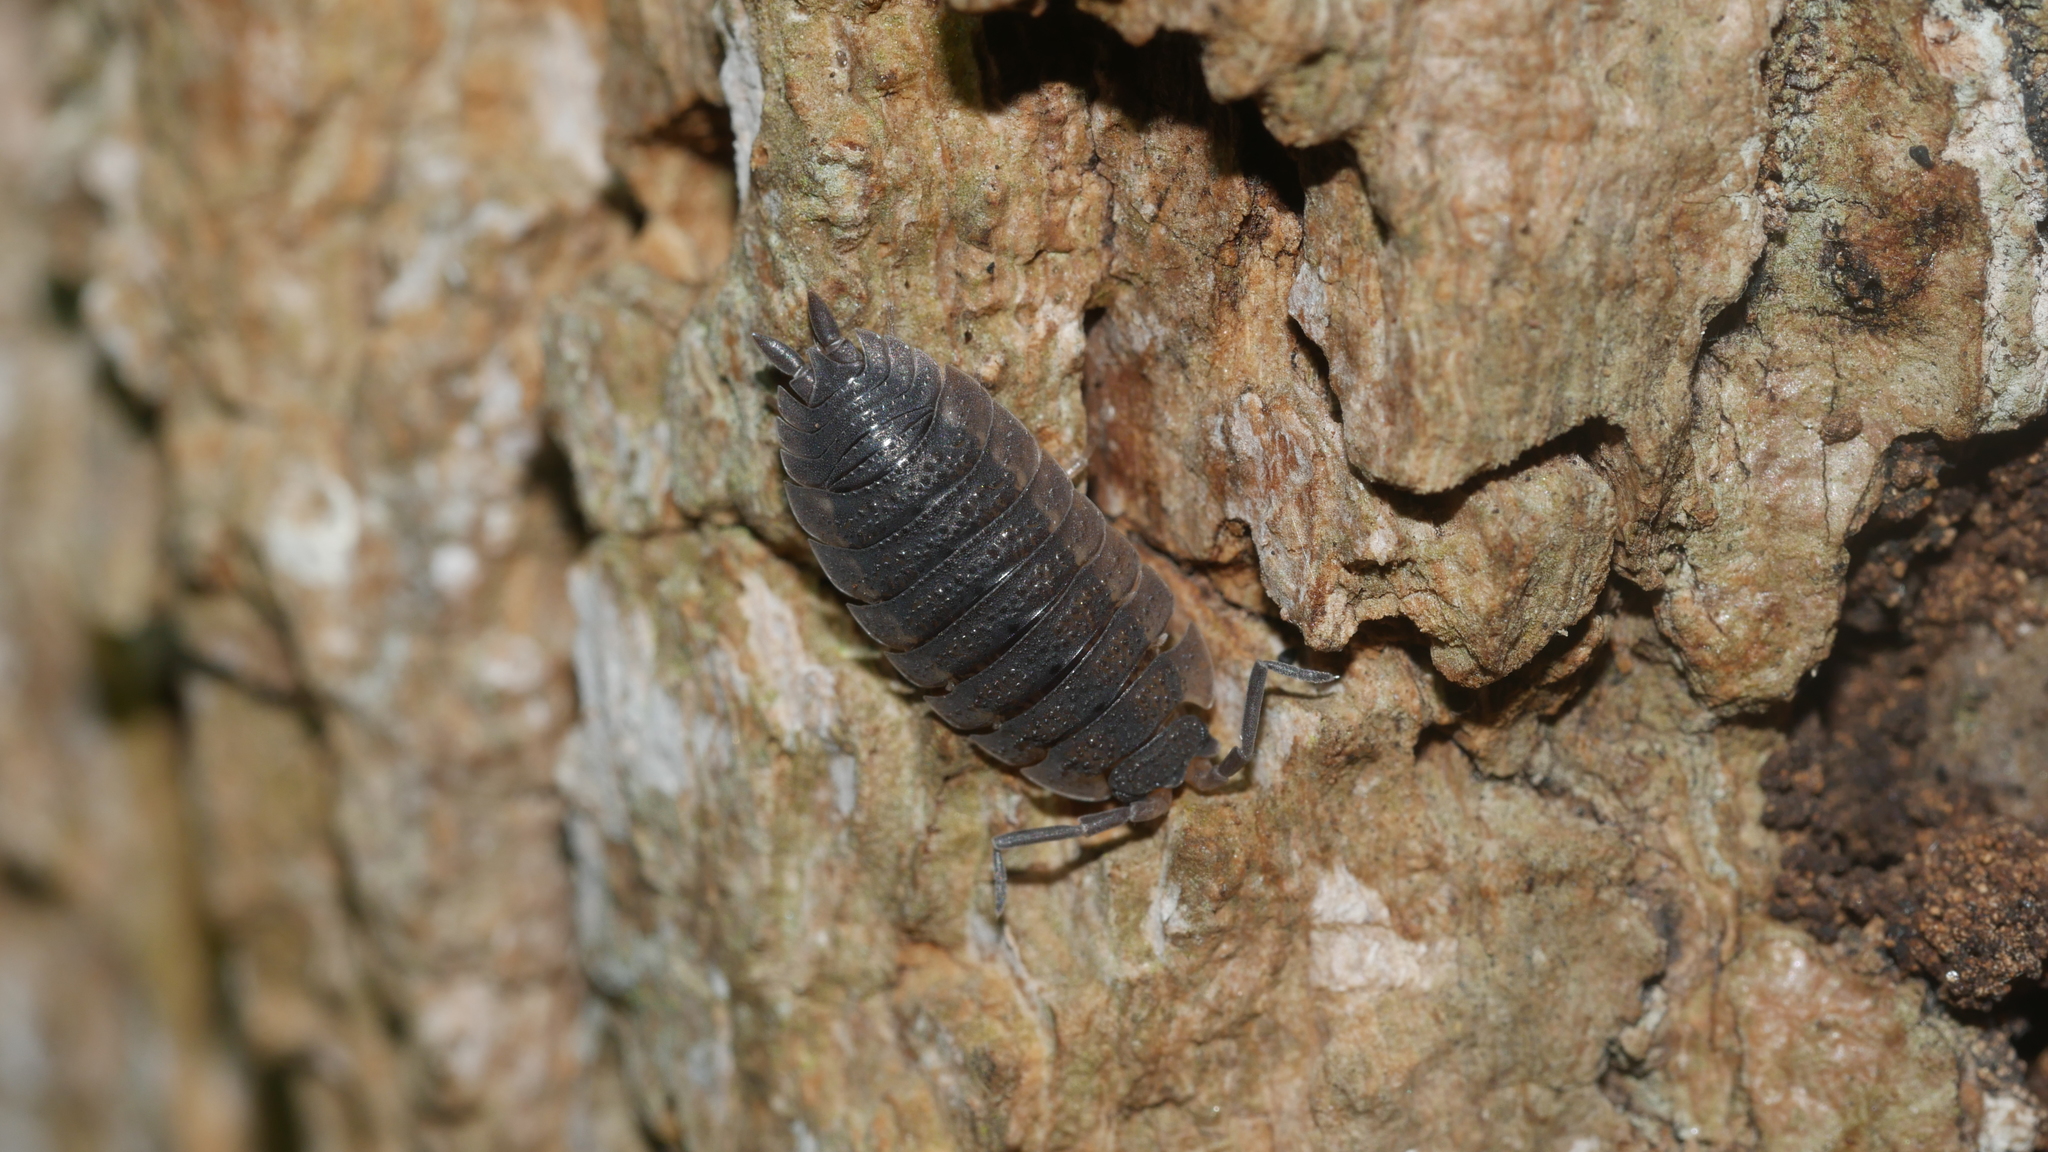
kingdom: Animalia
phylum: Arthropoda
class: Malacostraca
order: Isopoda
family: Porcellionidae
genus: Porcellio
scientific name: Porcellio scaber
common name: Common rough woodlouse
